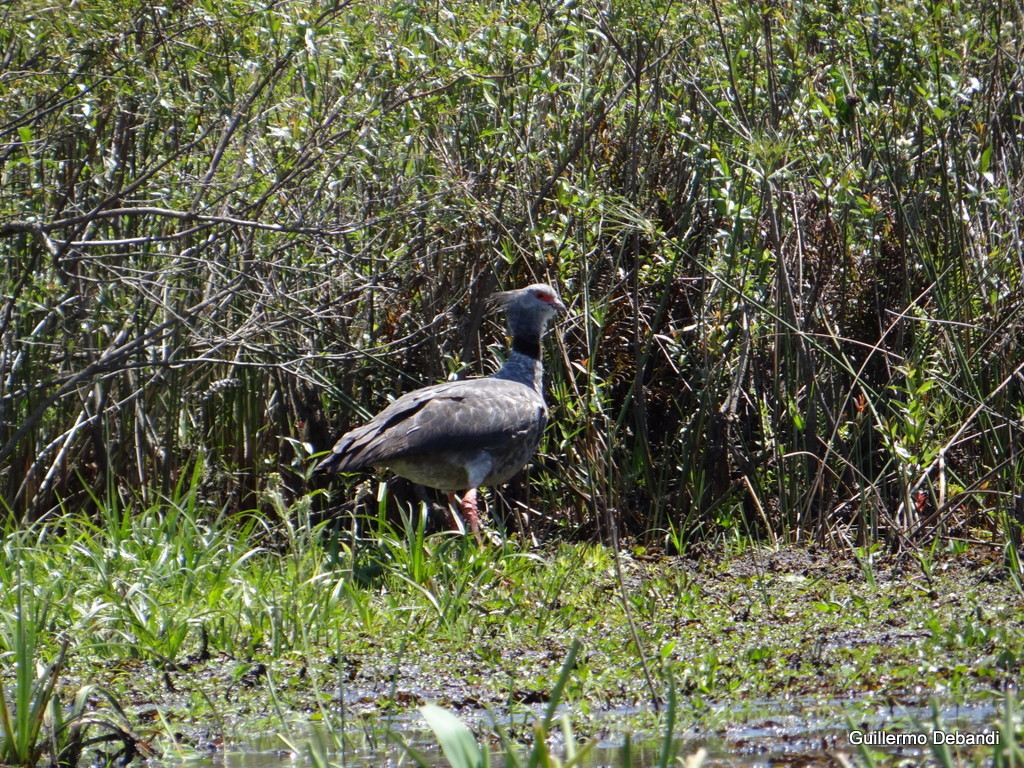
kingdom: Animalia
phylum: Chordata
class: Aves
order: Anseriformes
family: Anhimidae
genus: Chauna
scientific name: Chauna torquata
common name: Southern screamer
